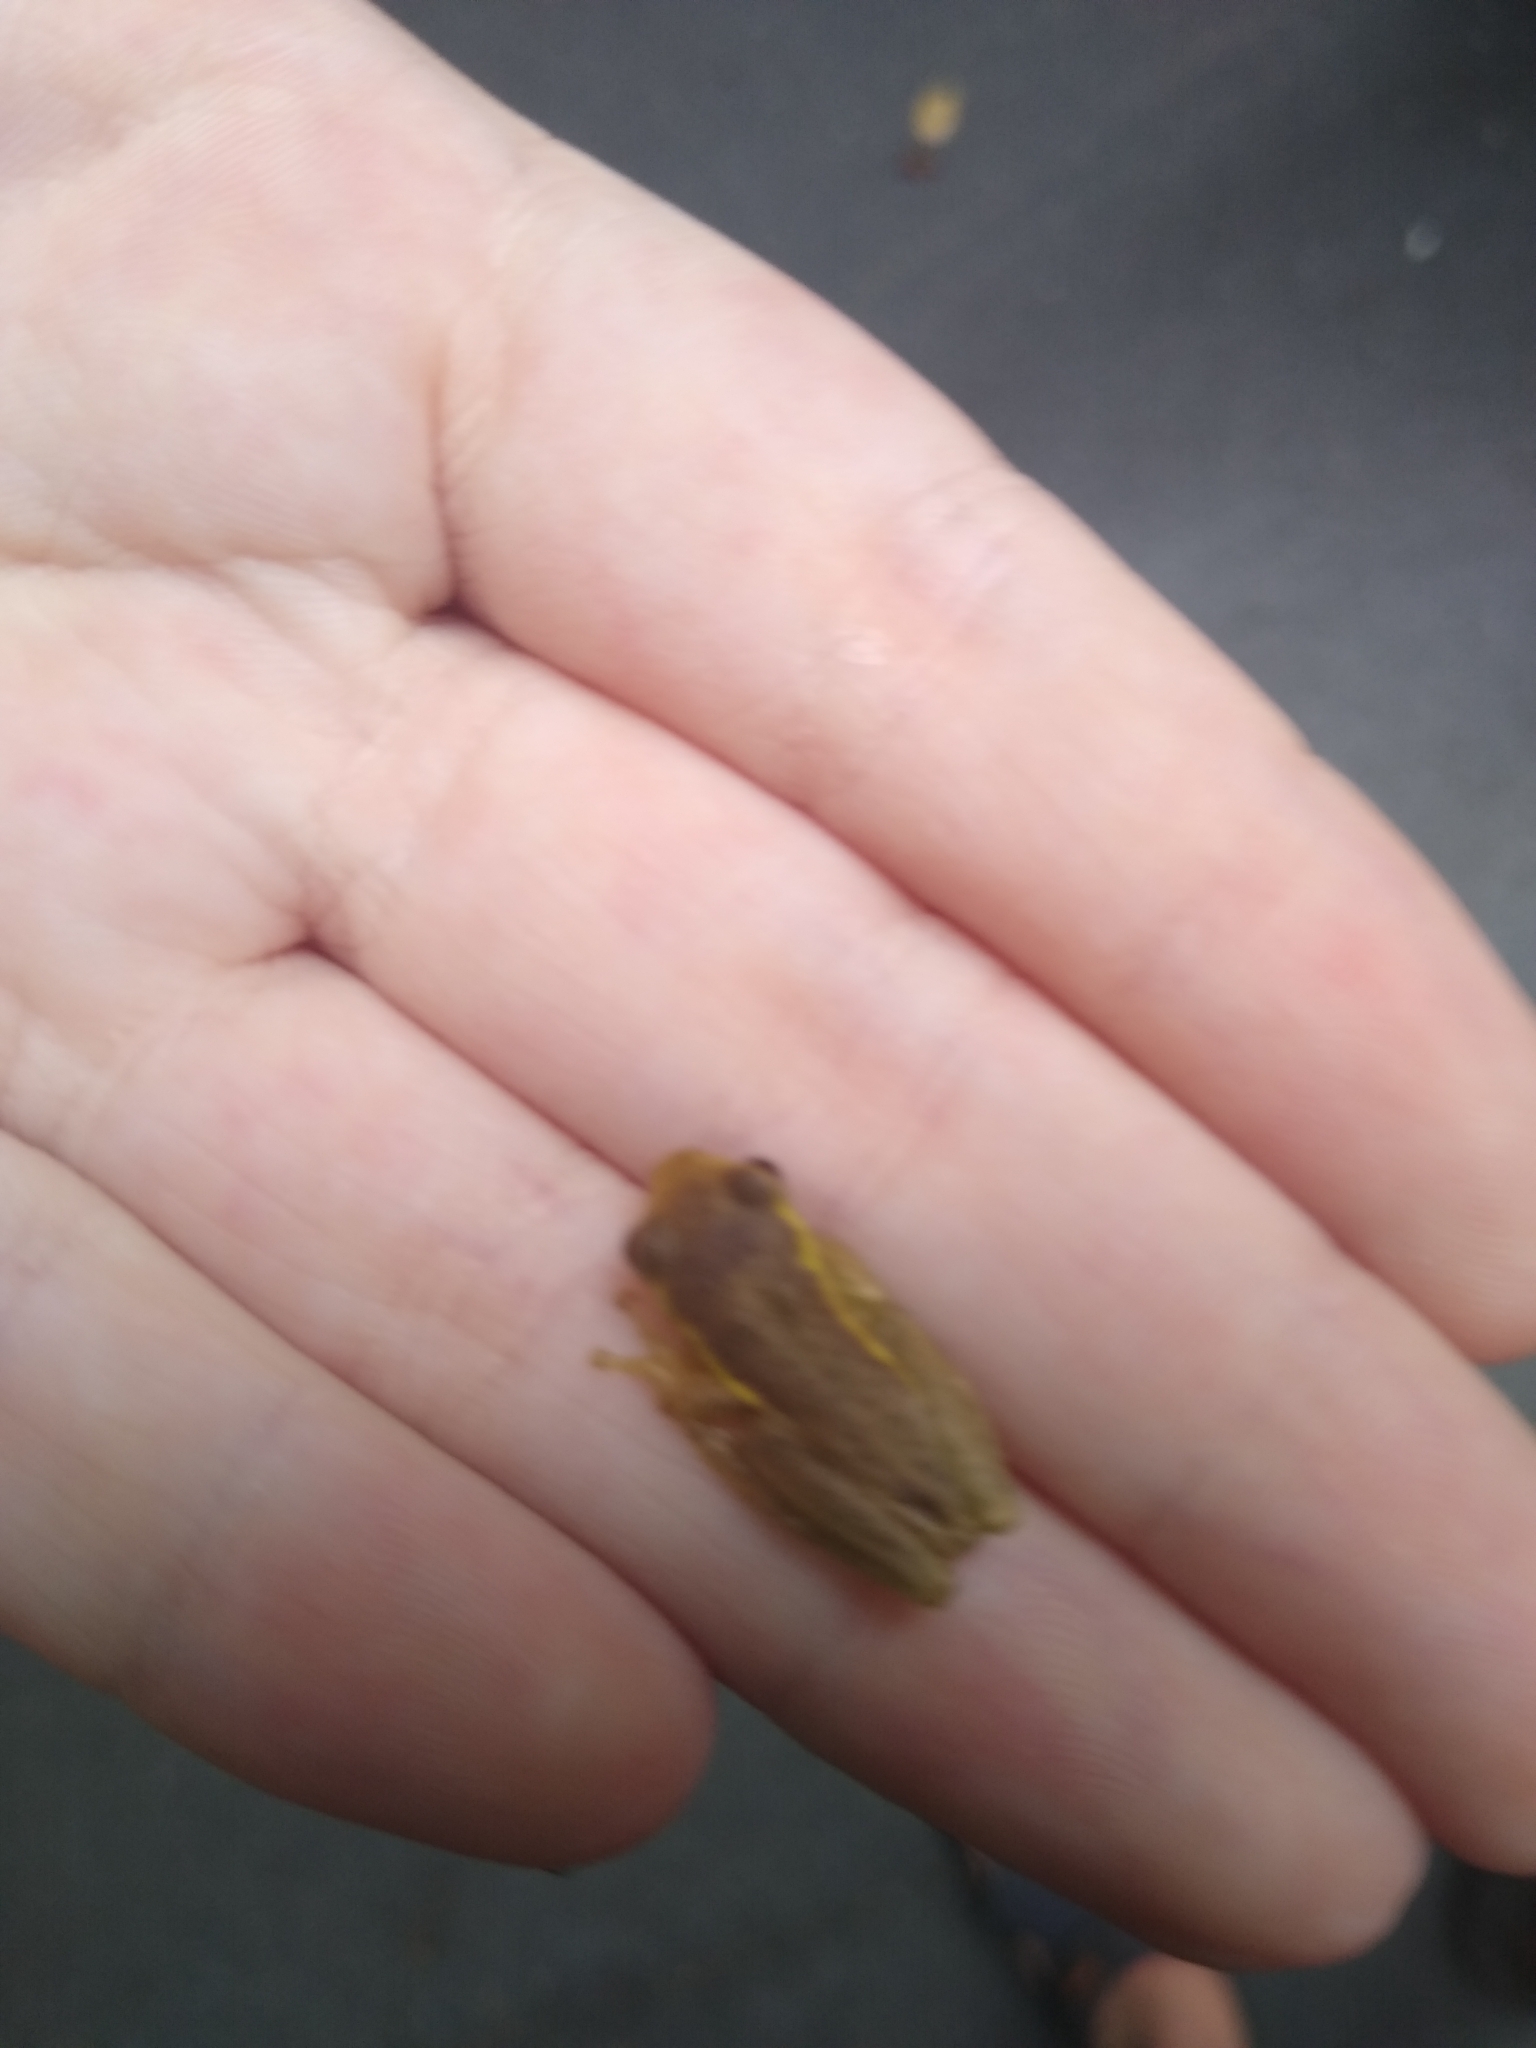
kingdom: Animalia
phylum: Chordata
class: Amphibia
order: Anura
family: Hylidae
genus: Osteopilus
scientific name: Osteopilus septentrionalis
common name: Cuban treefrog
